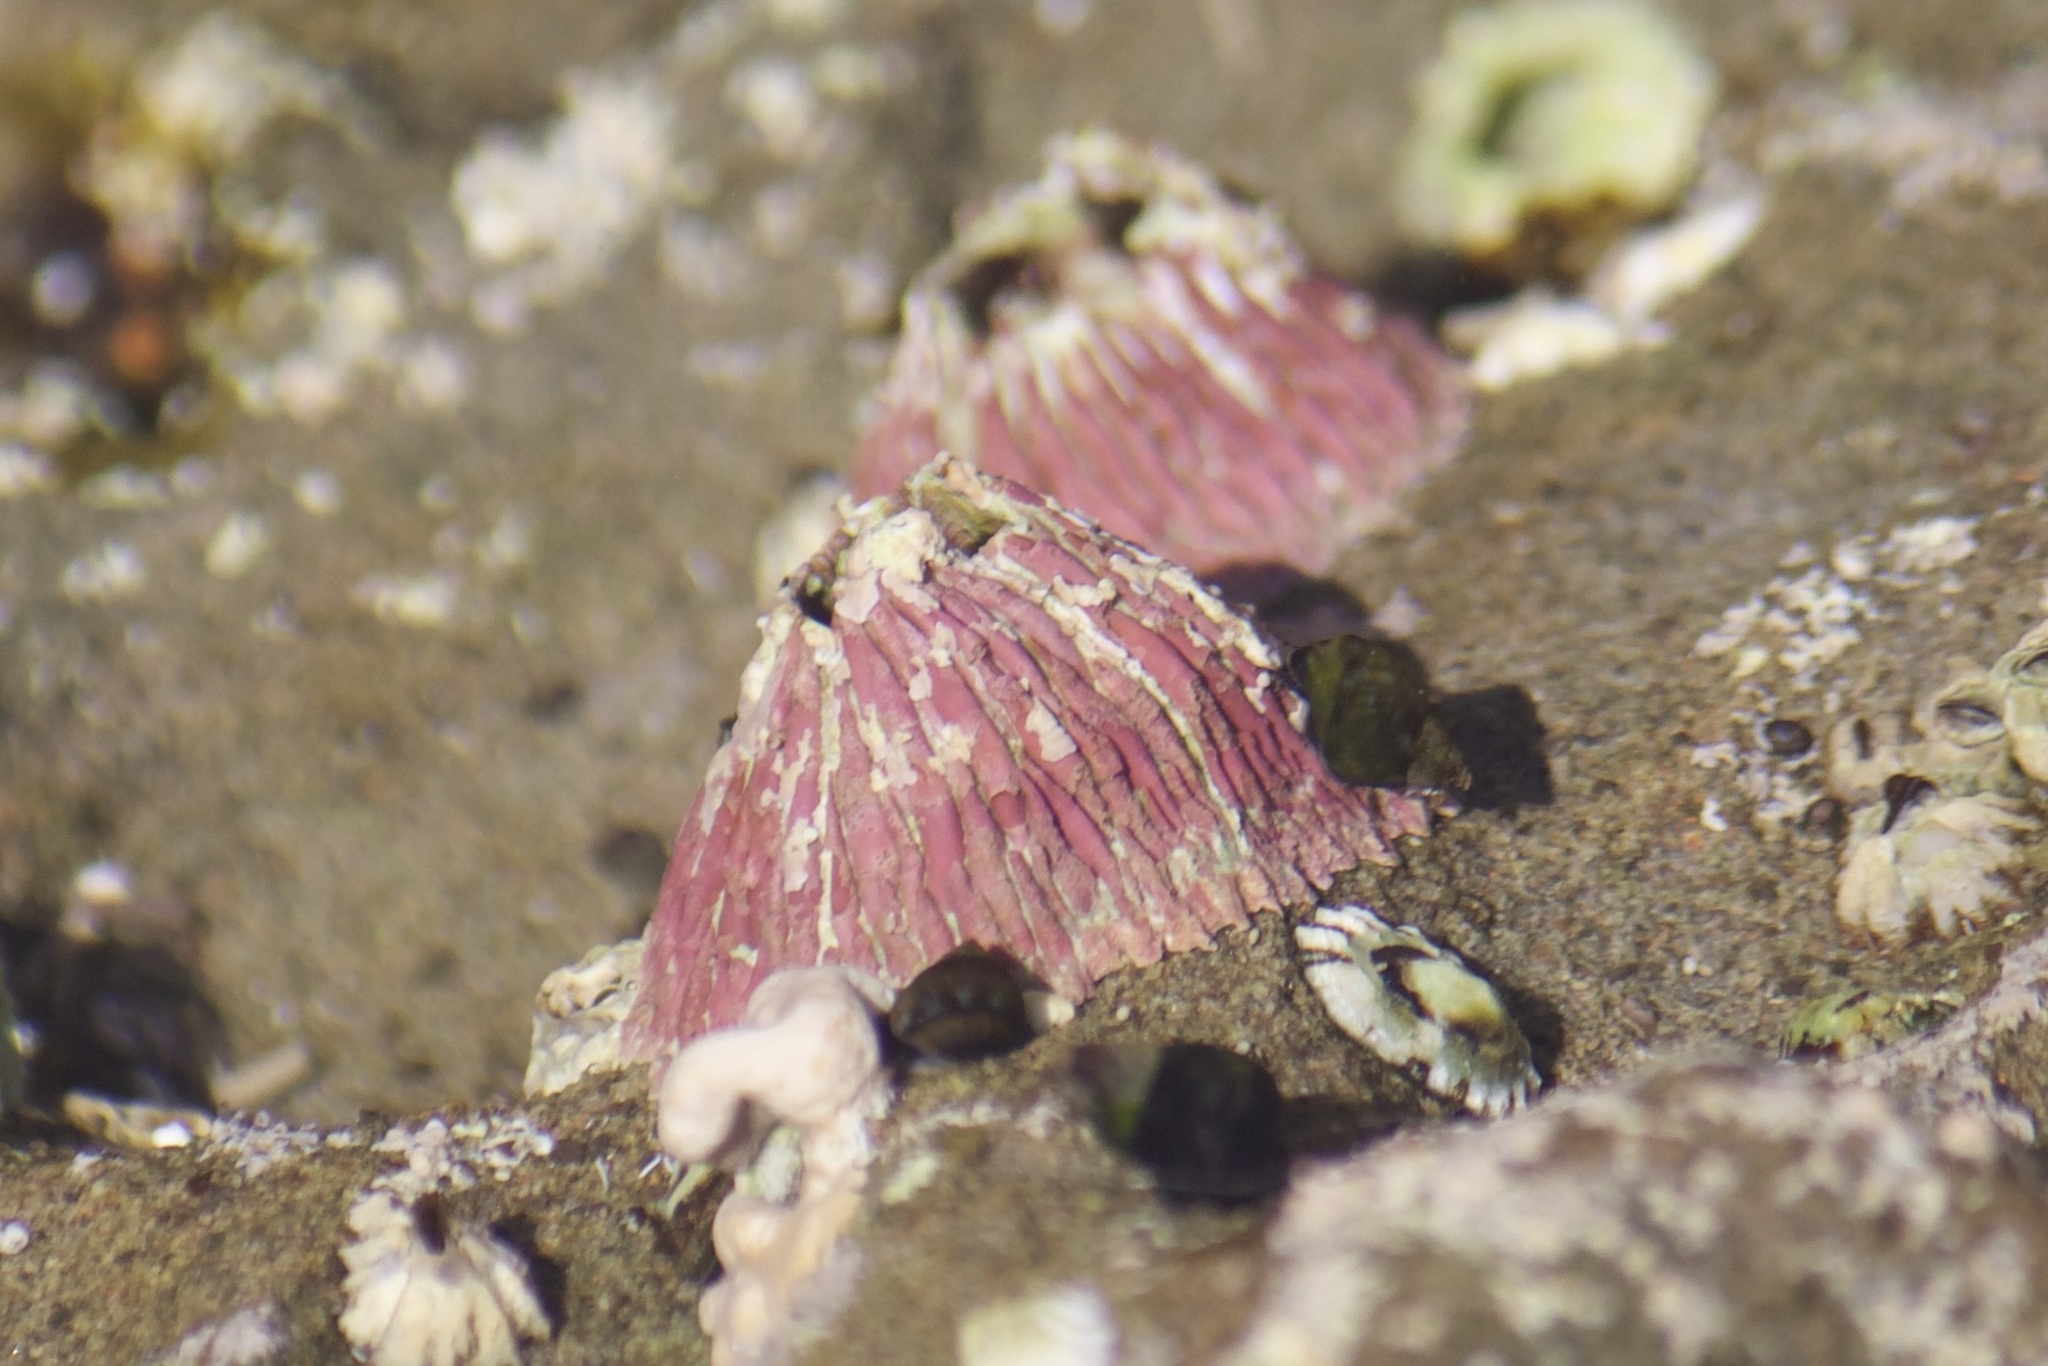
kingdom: Animalia
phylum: Arthropoda
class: Maxillopoda
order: Sessilia
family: Tetraclitidae
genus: Tetraclita
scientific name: Tetraclita rubescens
